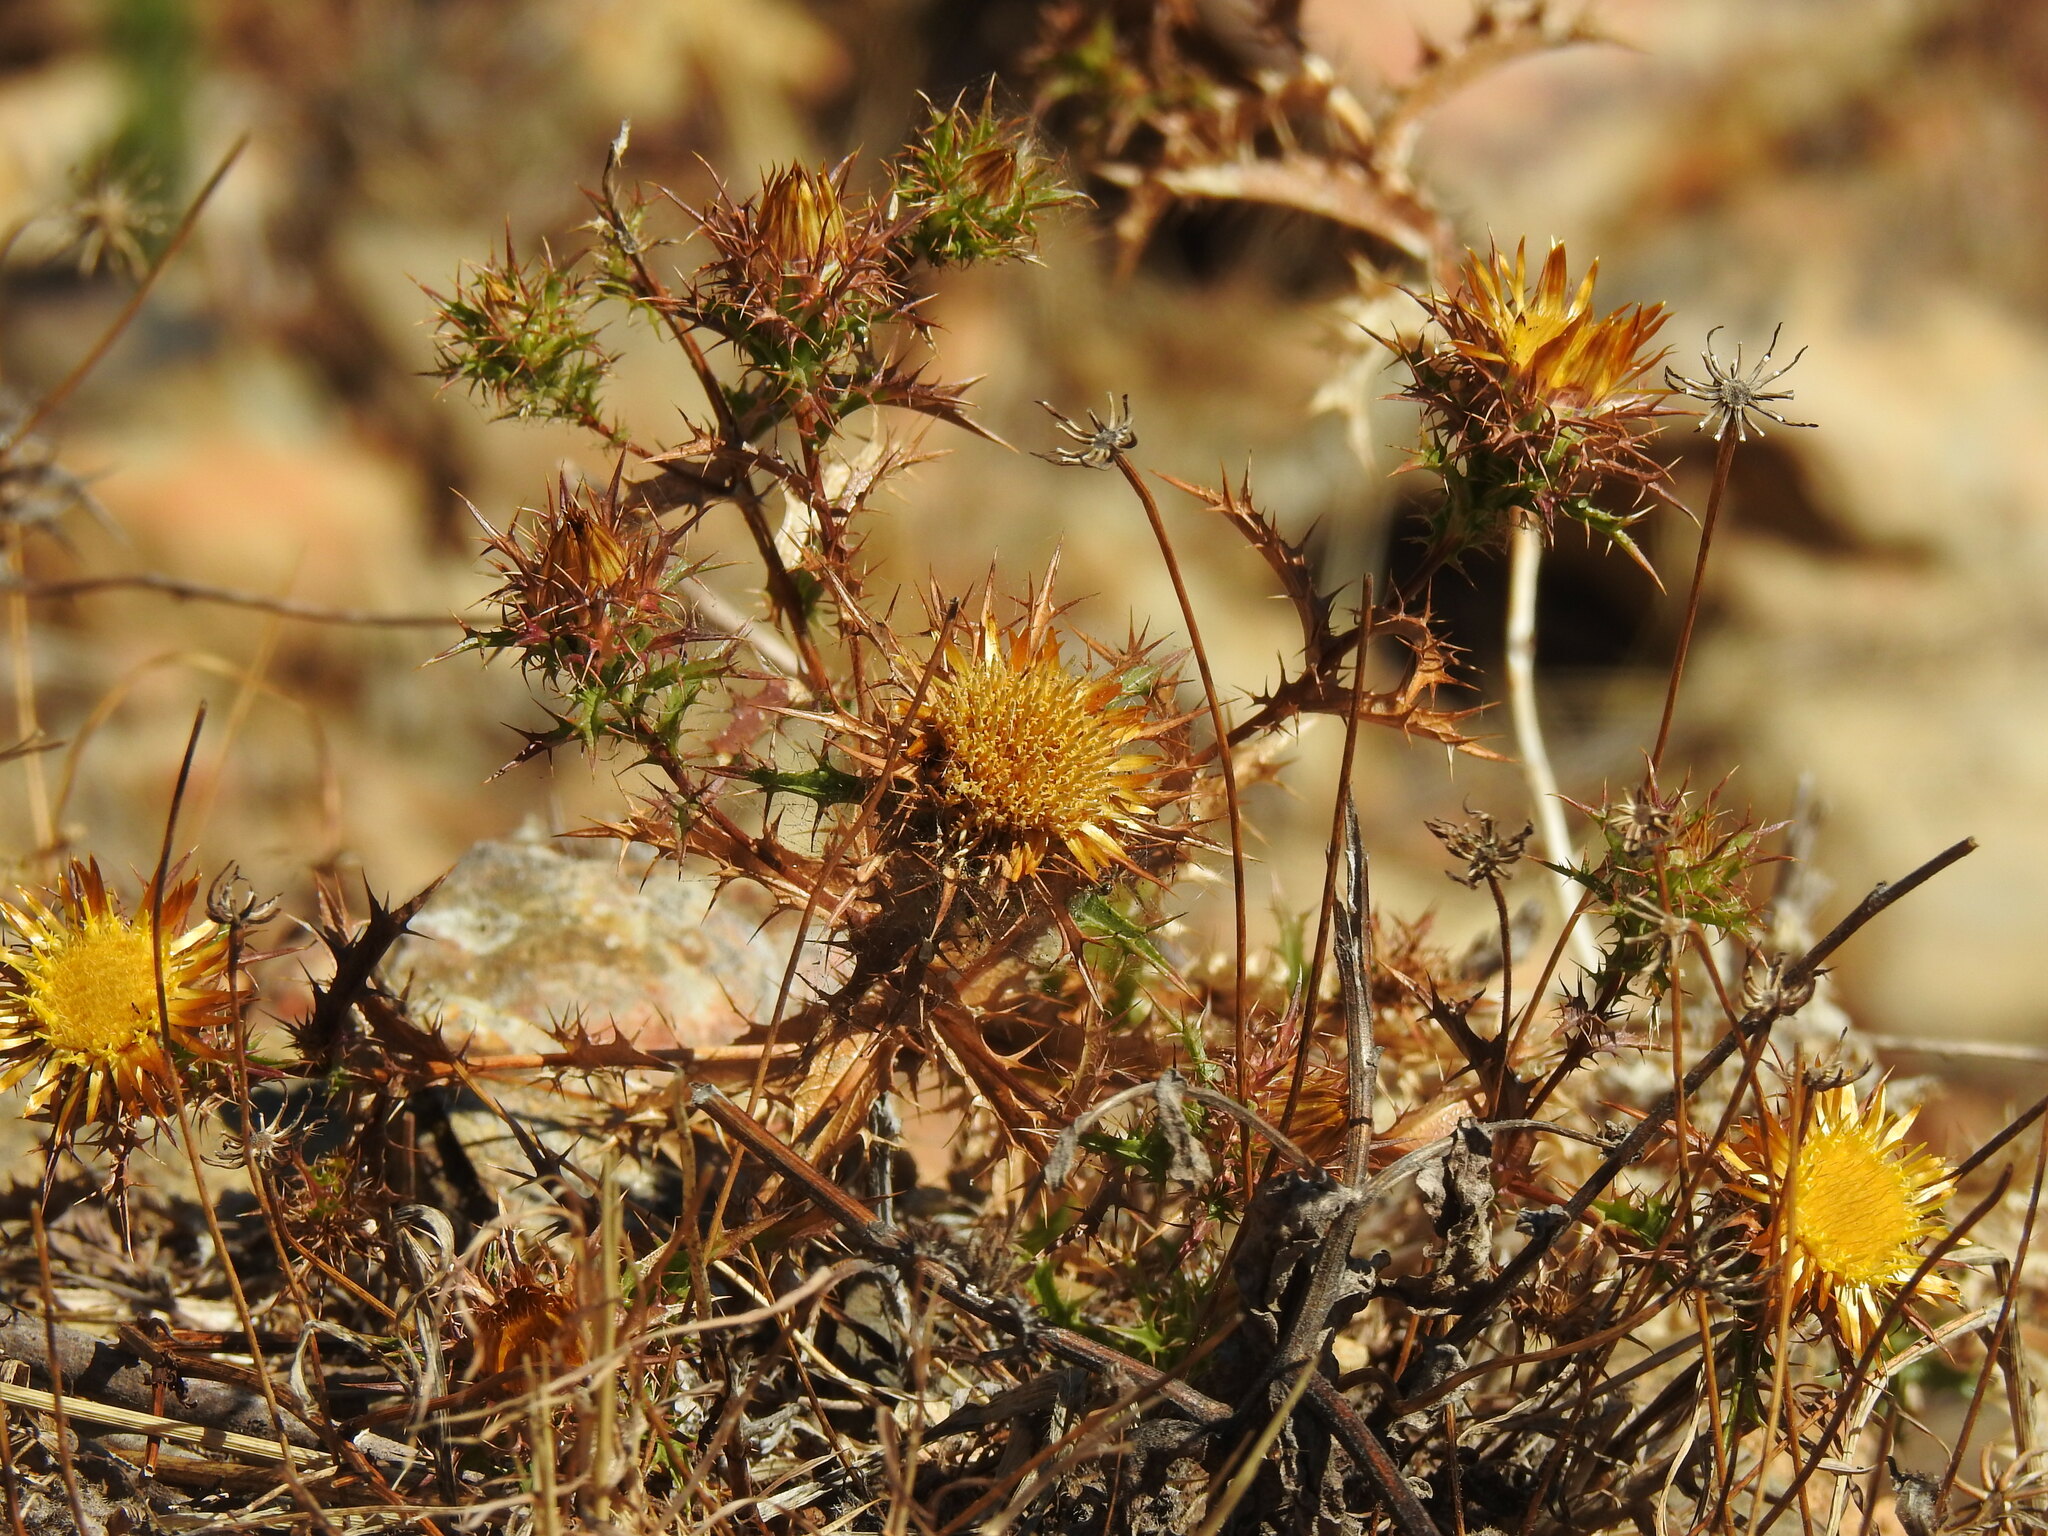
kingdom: Plantae
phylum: Tracheophyta
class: Magnoliopsida
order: Asterales
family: Asteraceae
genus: Carlina
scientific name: Carlina hispanica
